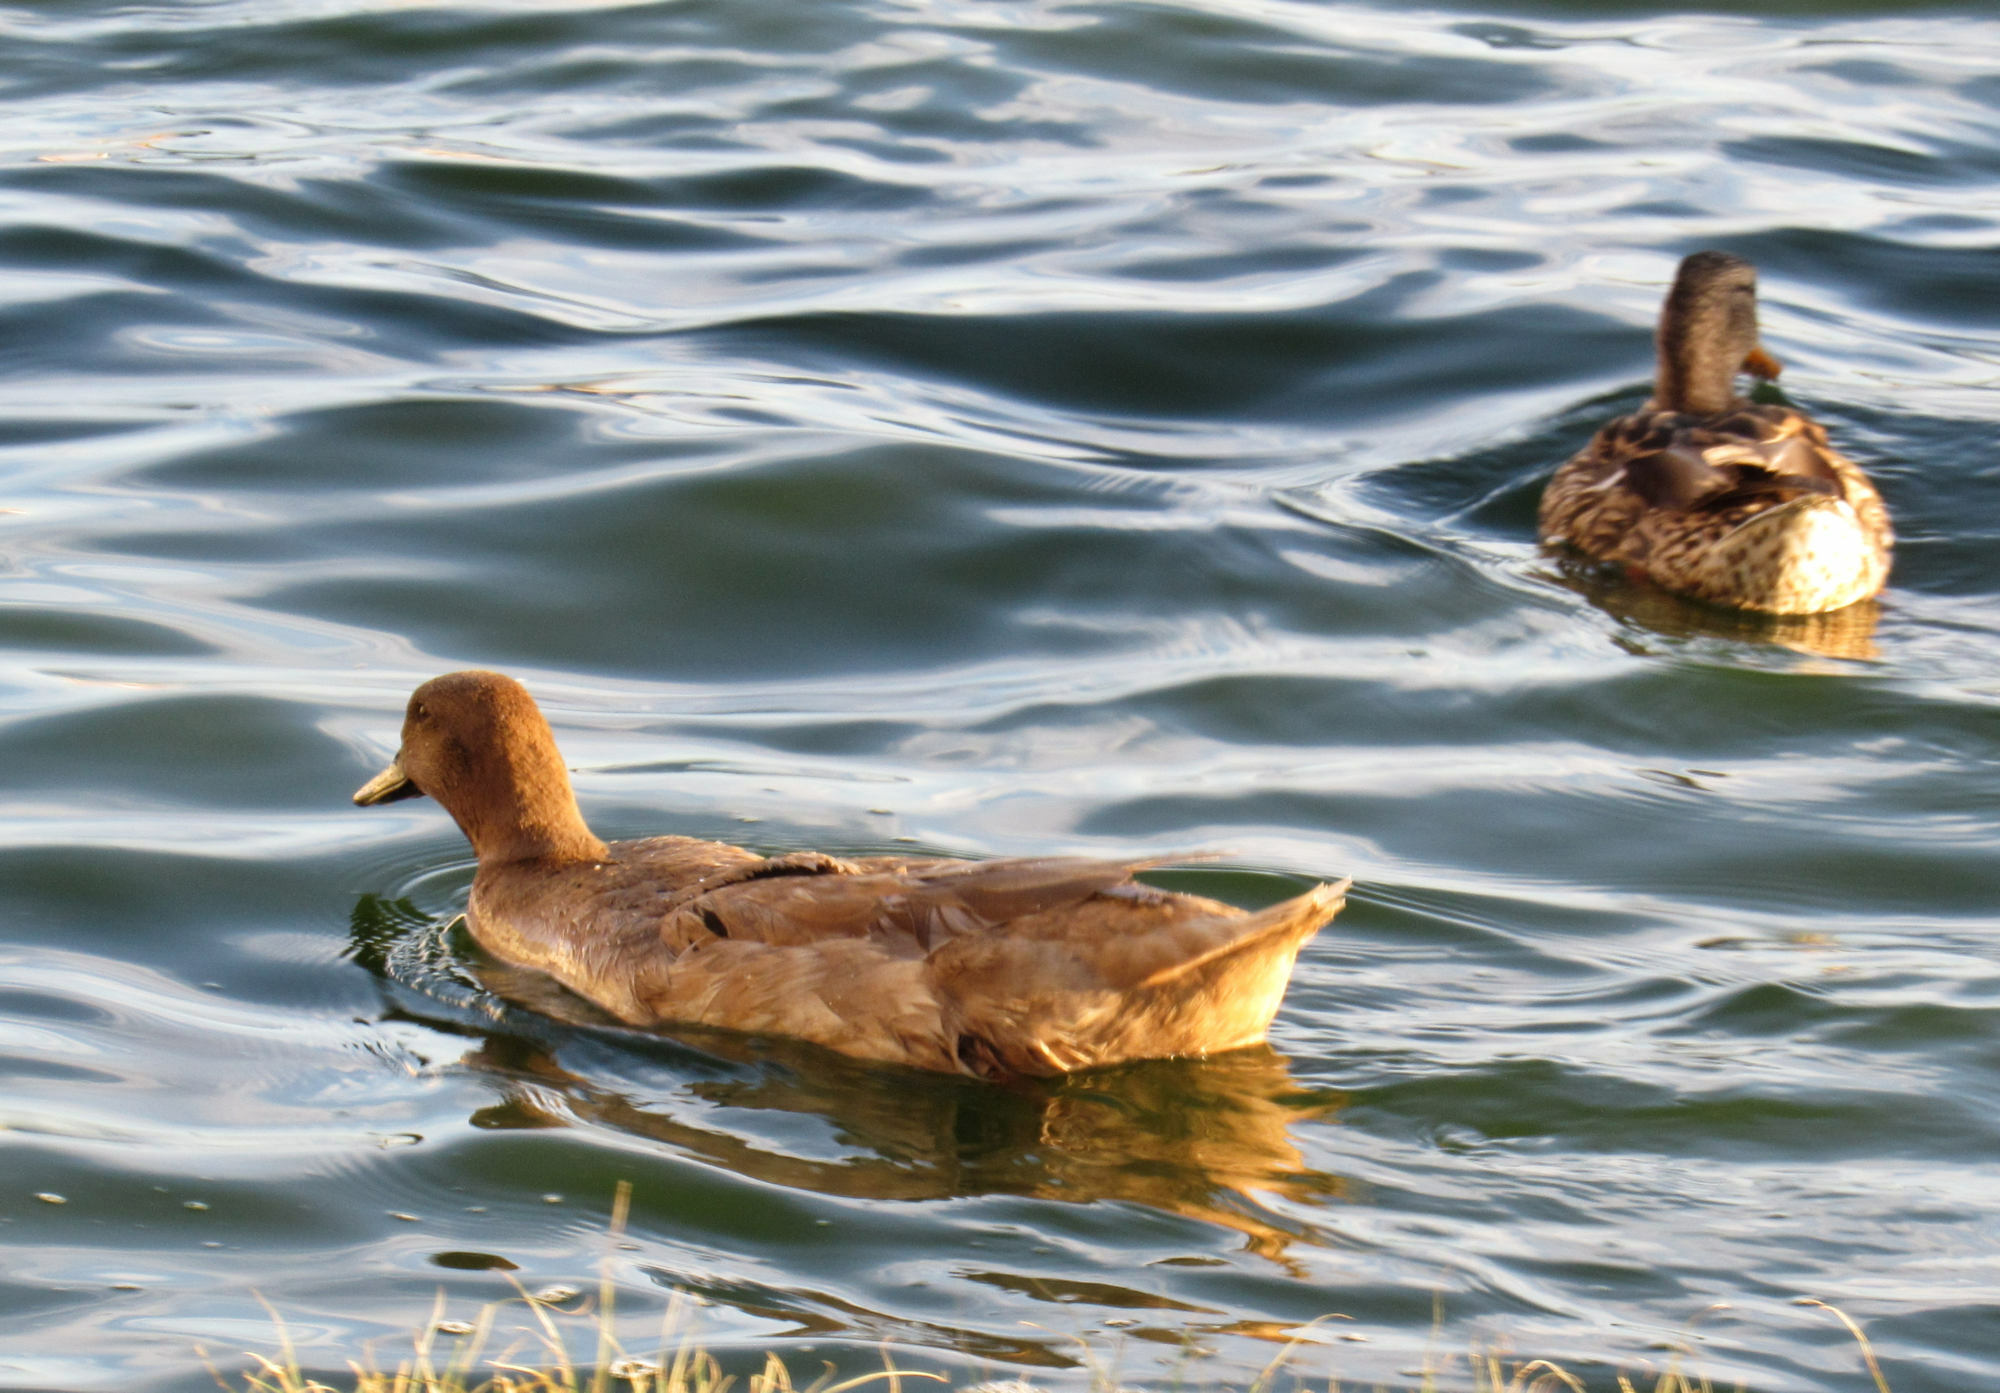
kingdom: Animalia
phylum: Chordata
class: Aves
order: Anseriformes
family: Anatidae
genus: Anas
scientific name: Anas platyrhynchos
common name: Mallard
